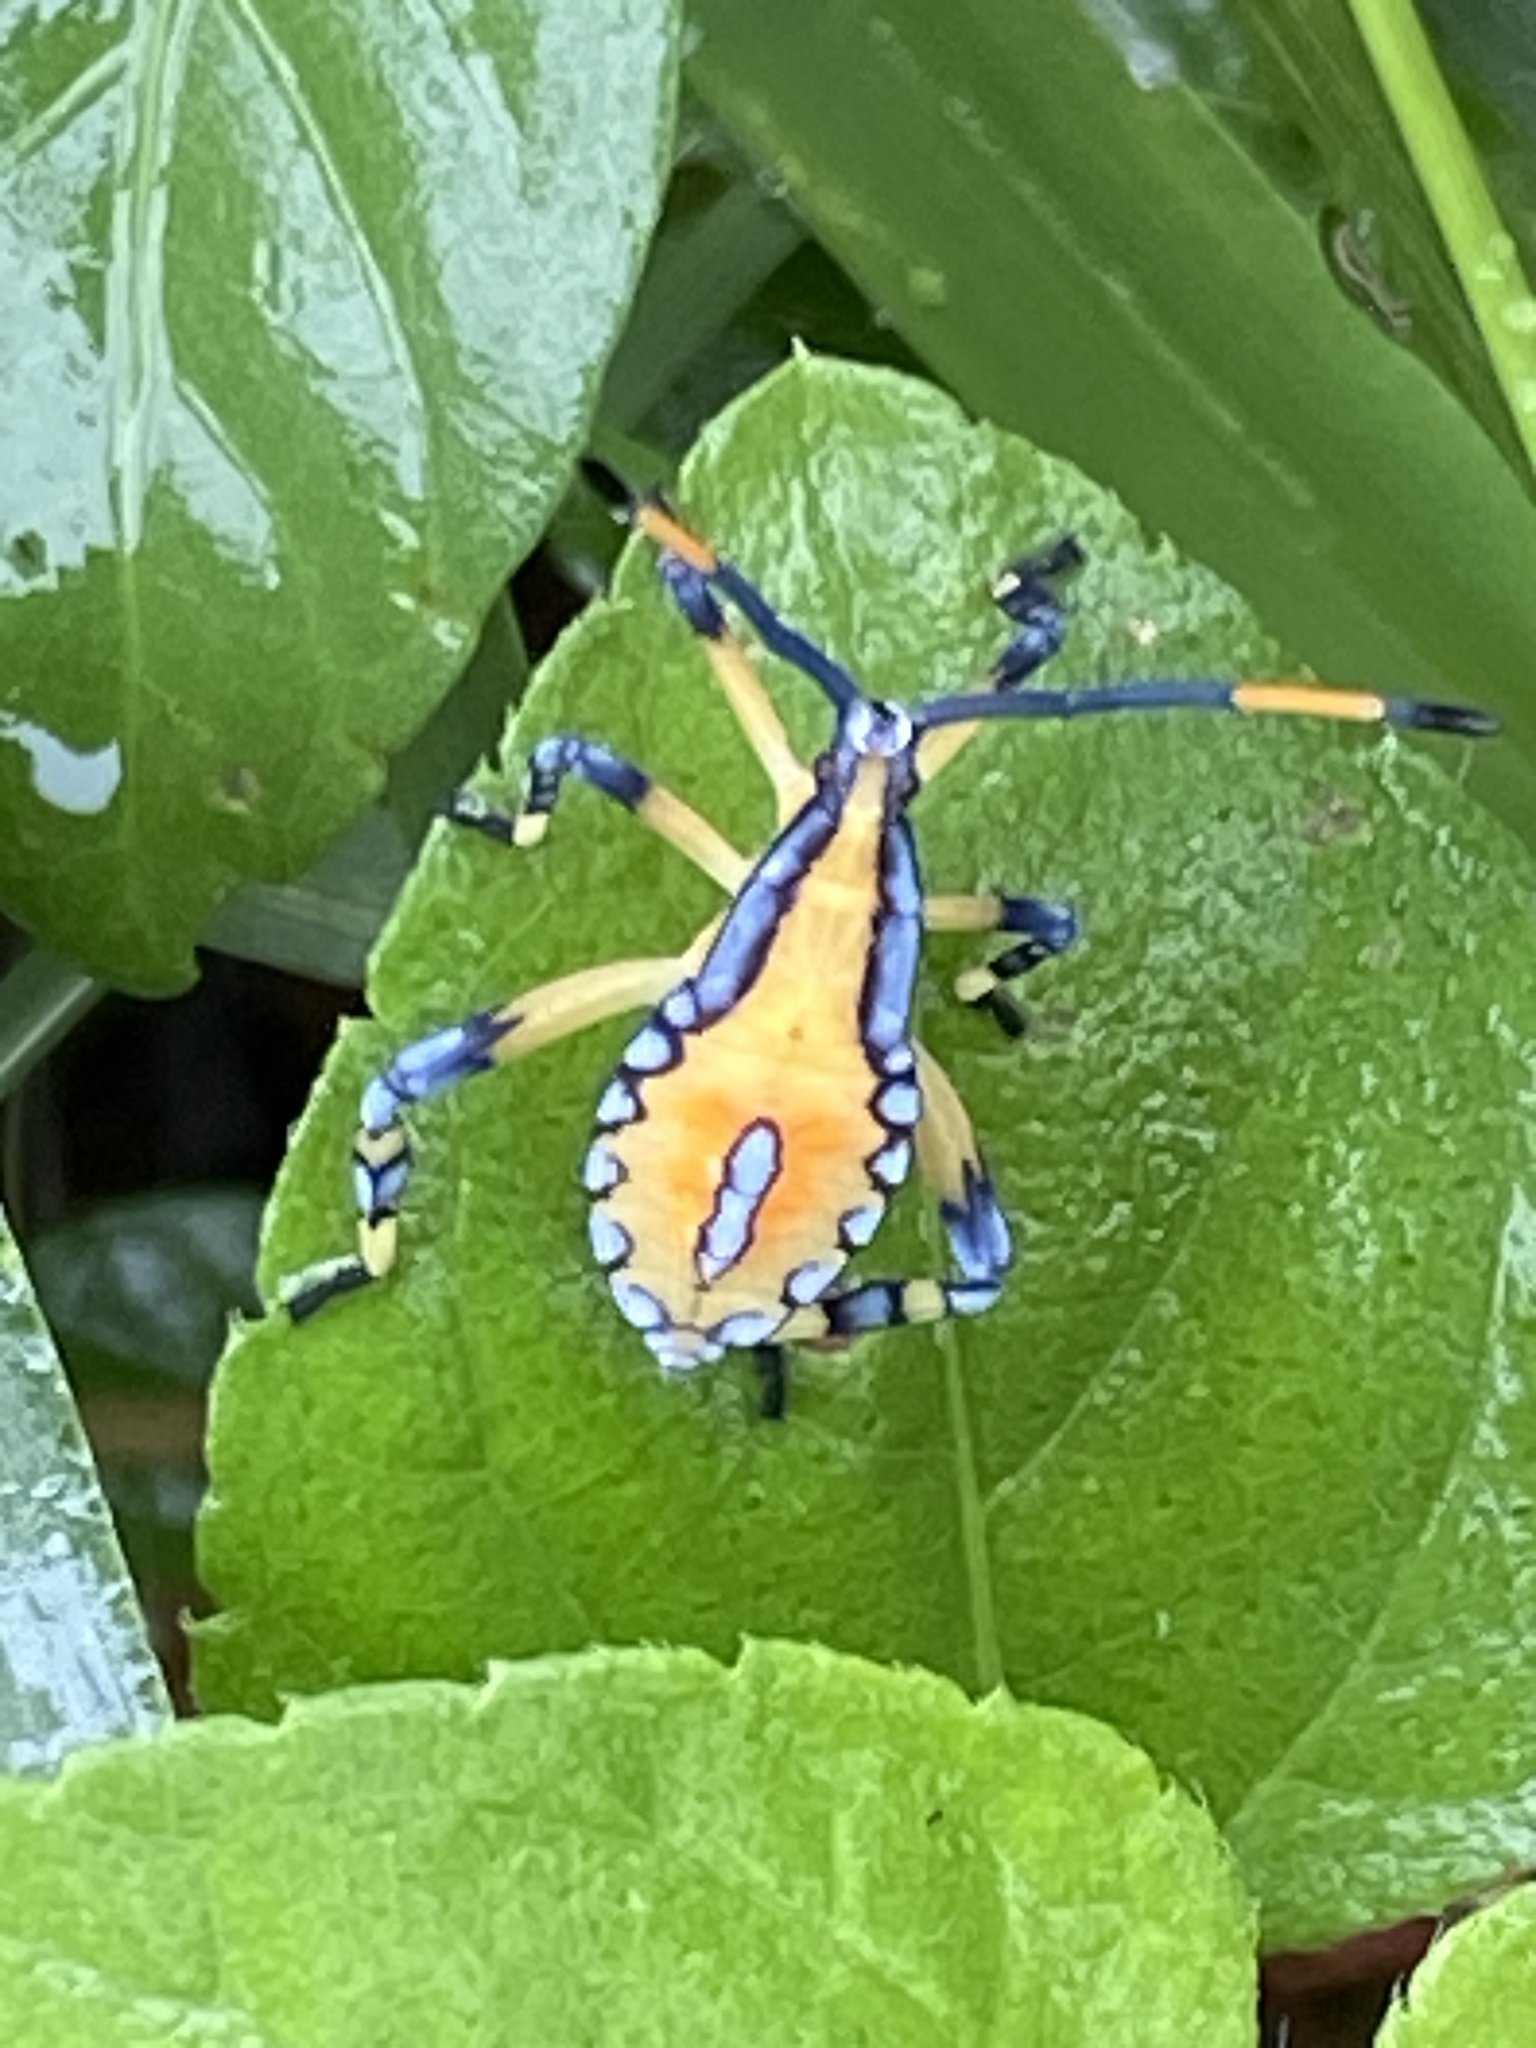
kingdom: Animalia
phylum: Arthropoda
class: Insecta
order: Hemiptera
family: Coreidae
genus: Amorbus
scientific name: Amorbus alternatus
